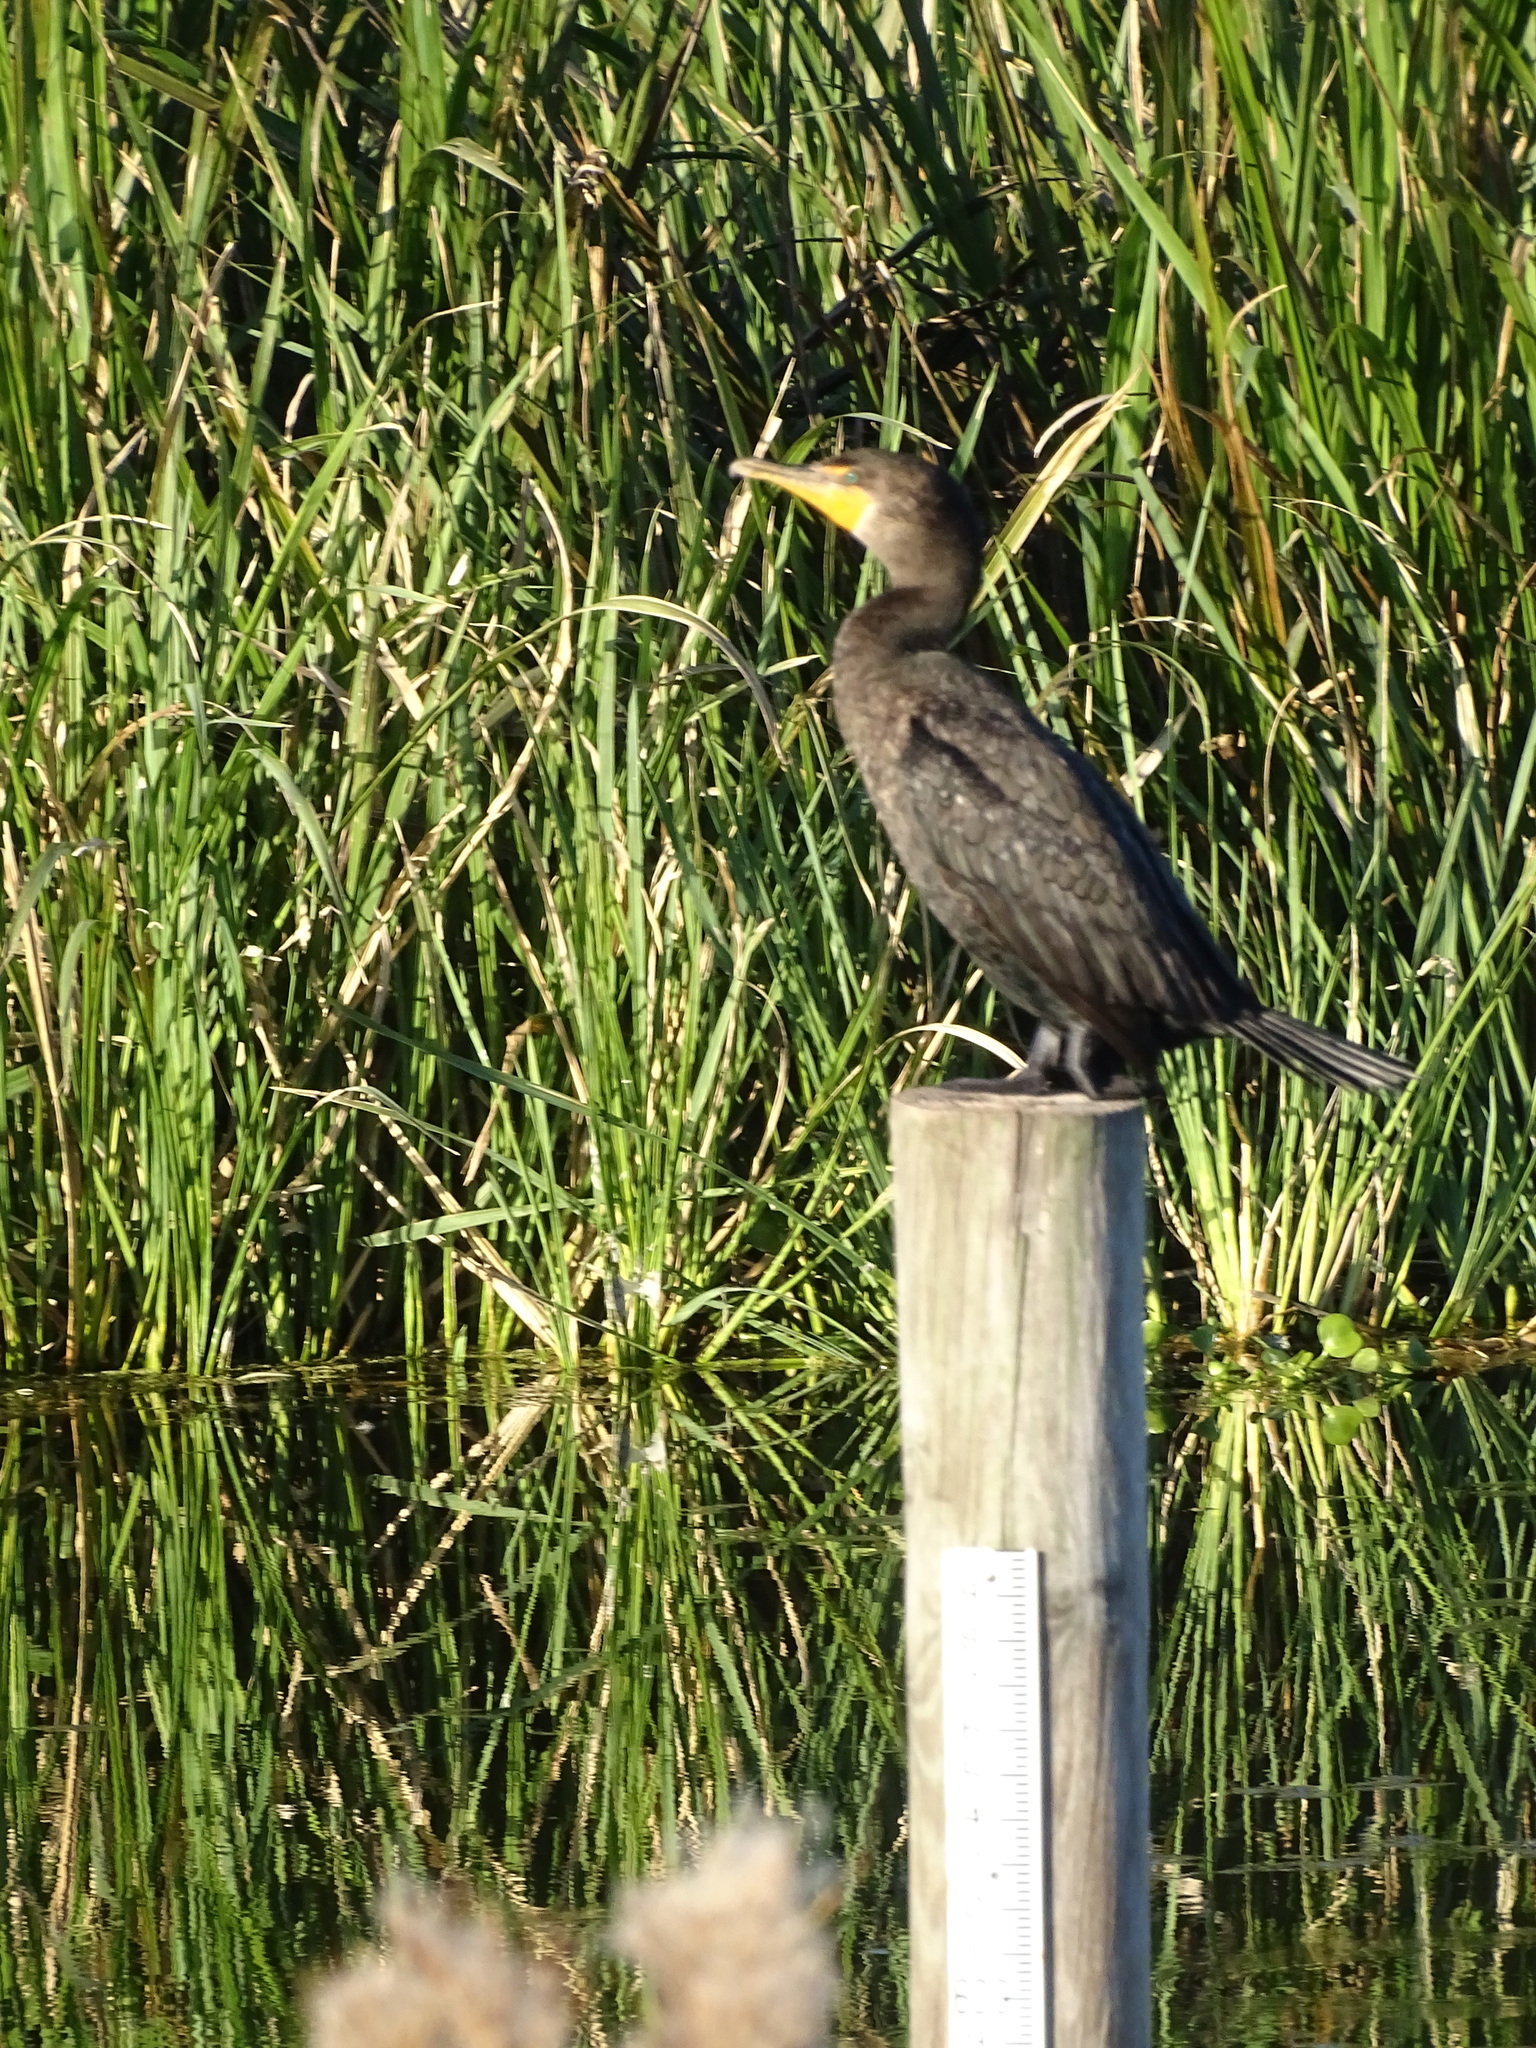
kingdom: Animalia
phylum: Chordata
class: Aves
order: Suliformes
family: Phalacrocoracidae
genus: Phalacrocorax
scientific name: Phalacrocorax auritus
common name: Double-crested cormorant
